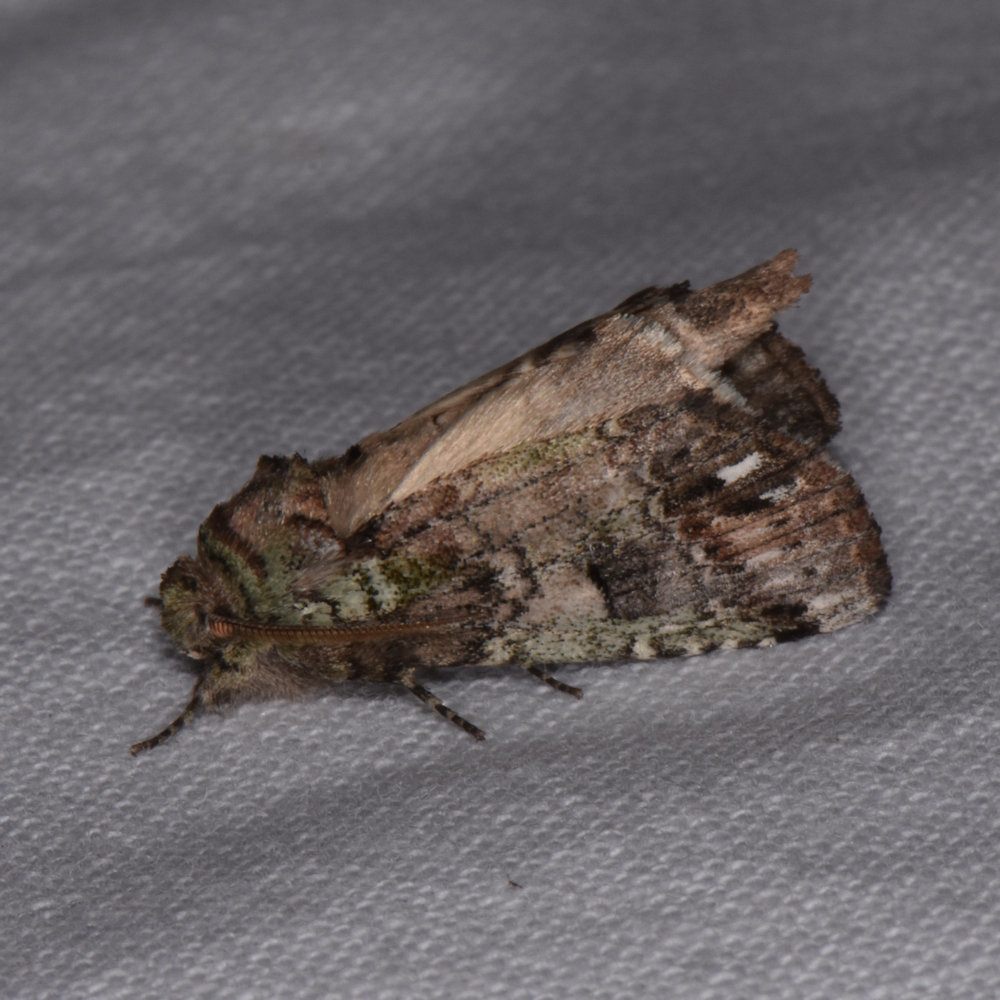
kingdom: Animalia
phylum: Arthropoda
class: Insecta
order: Lepidoptera
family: Notodontidae
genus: Schizura
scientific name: Schizura
